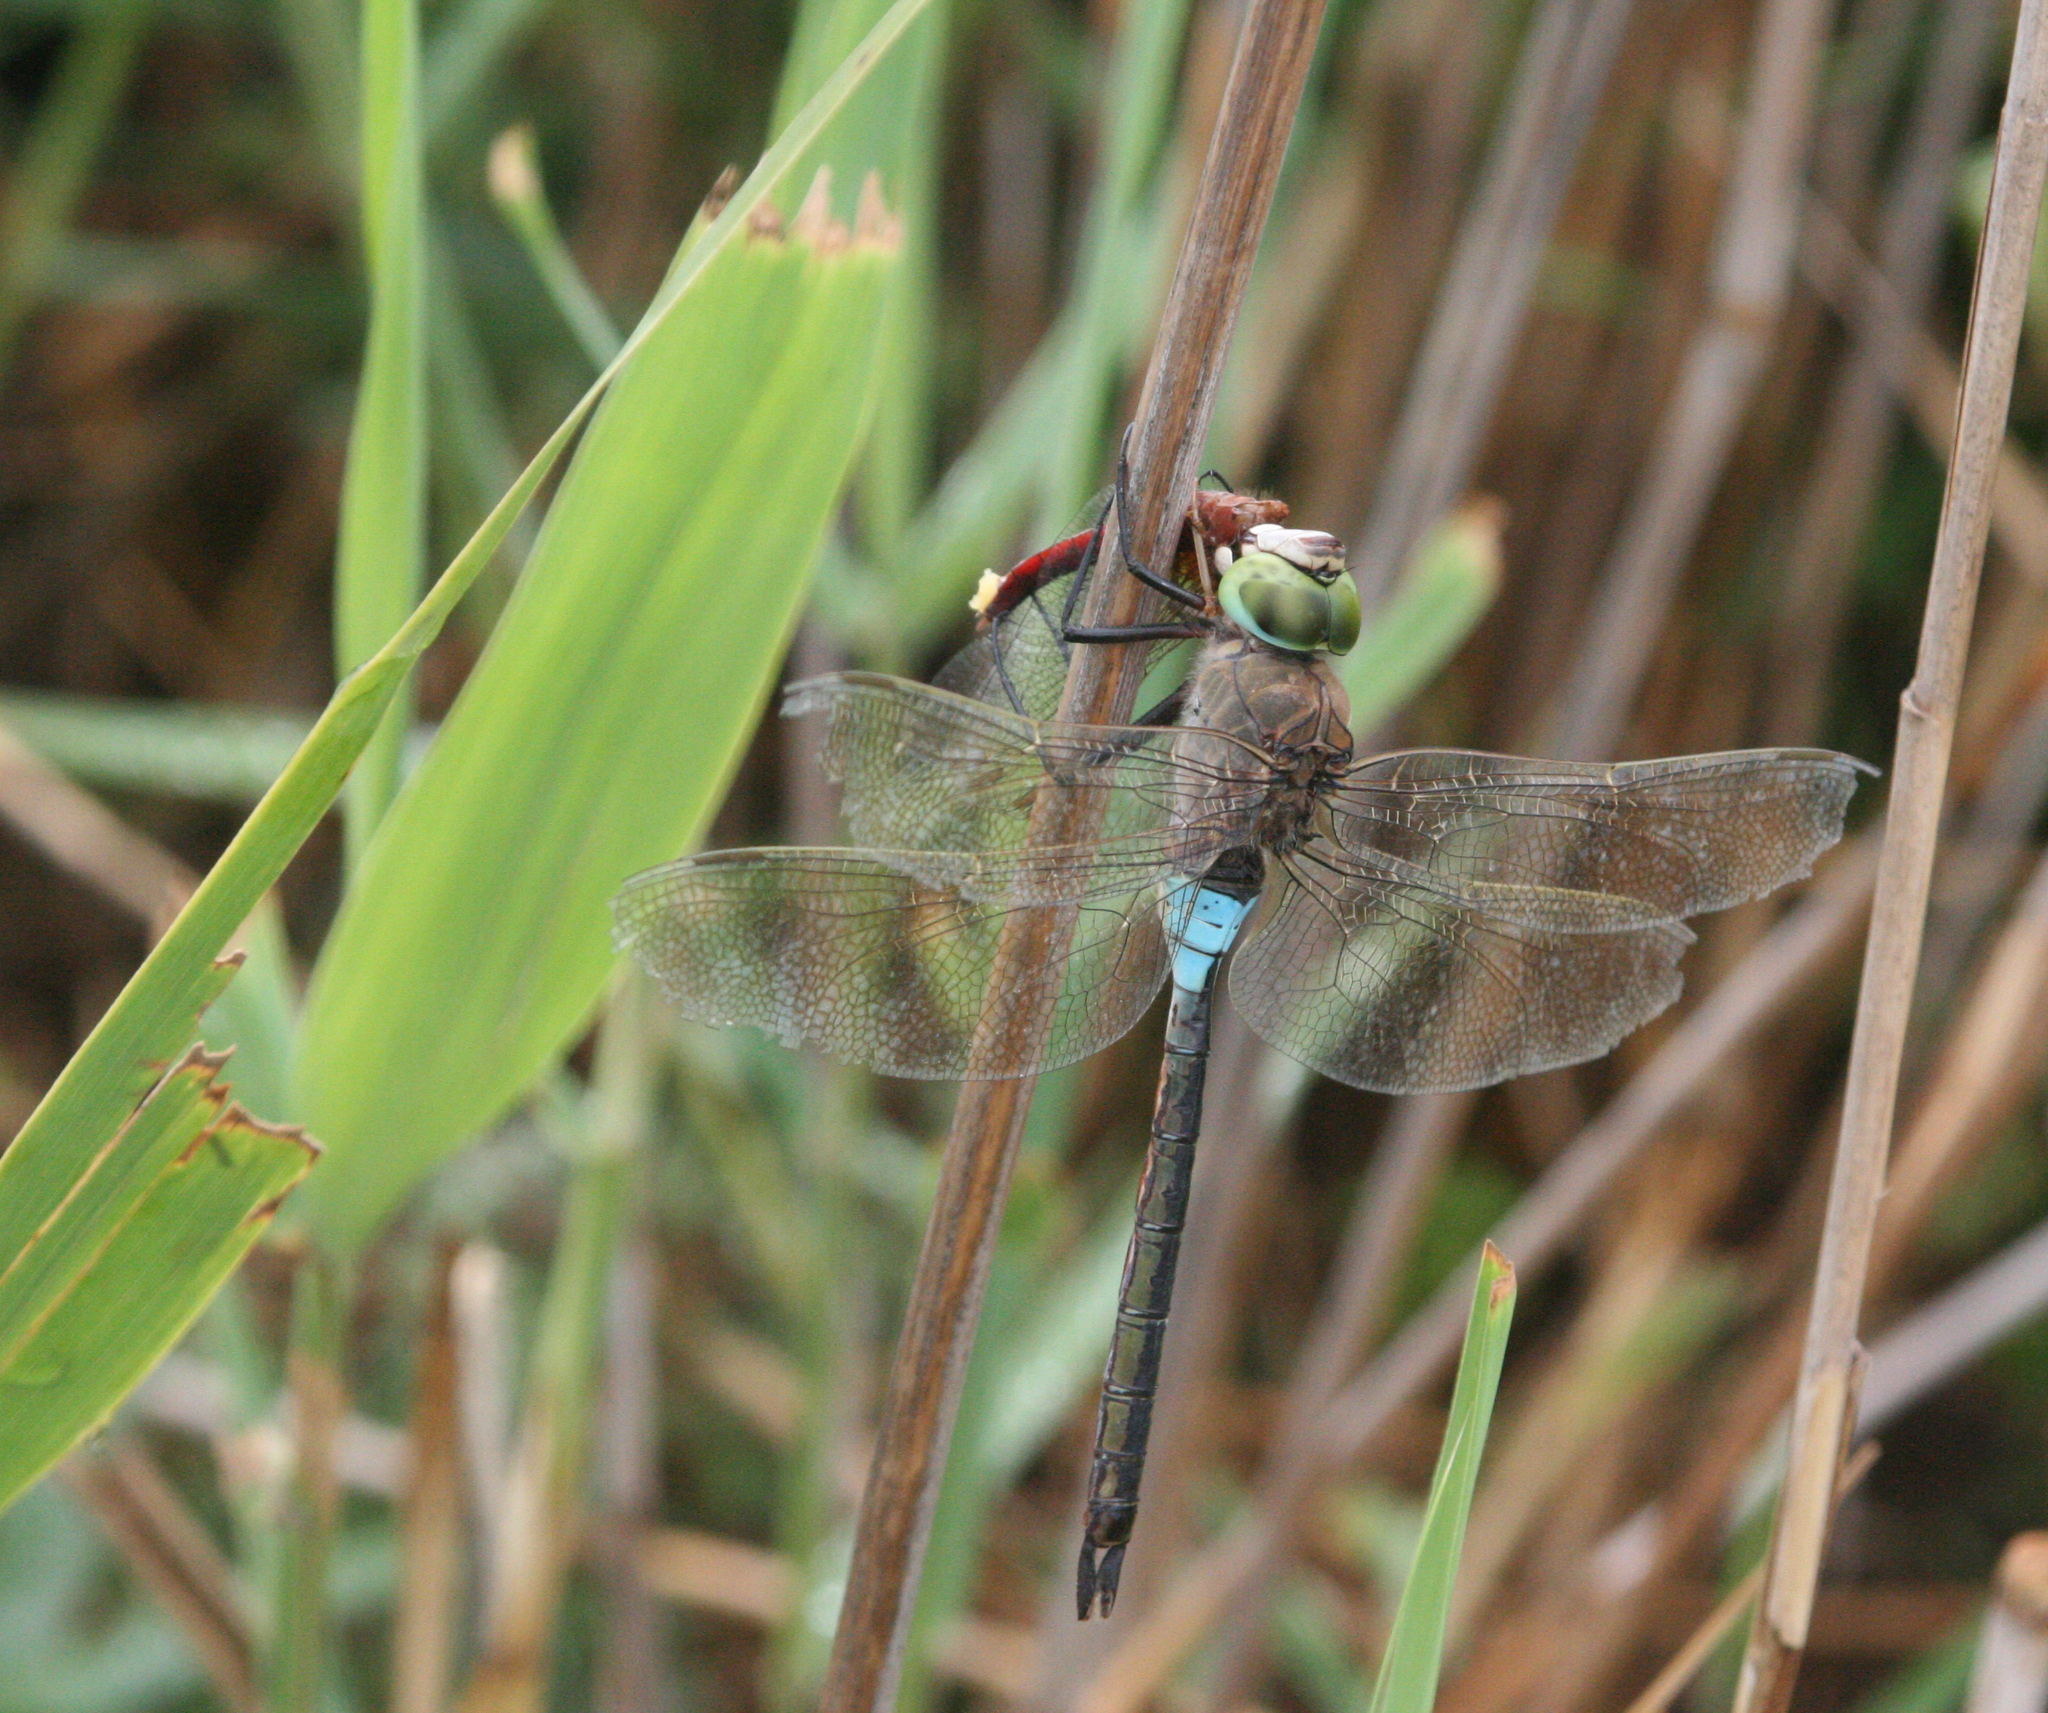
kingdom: Animalia
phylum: Arthropoda
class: Insecta
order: Odonata
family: Aeshnidae
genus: Anax
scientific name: Anax parthenope
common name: Lesser emperor
